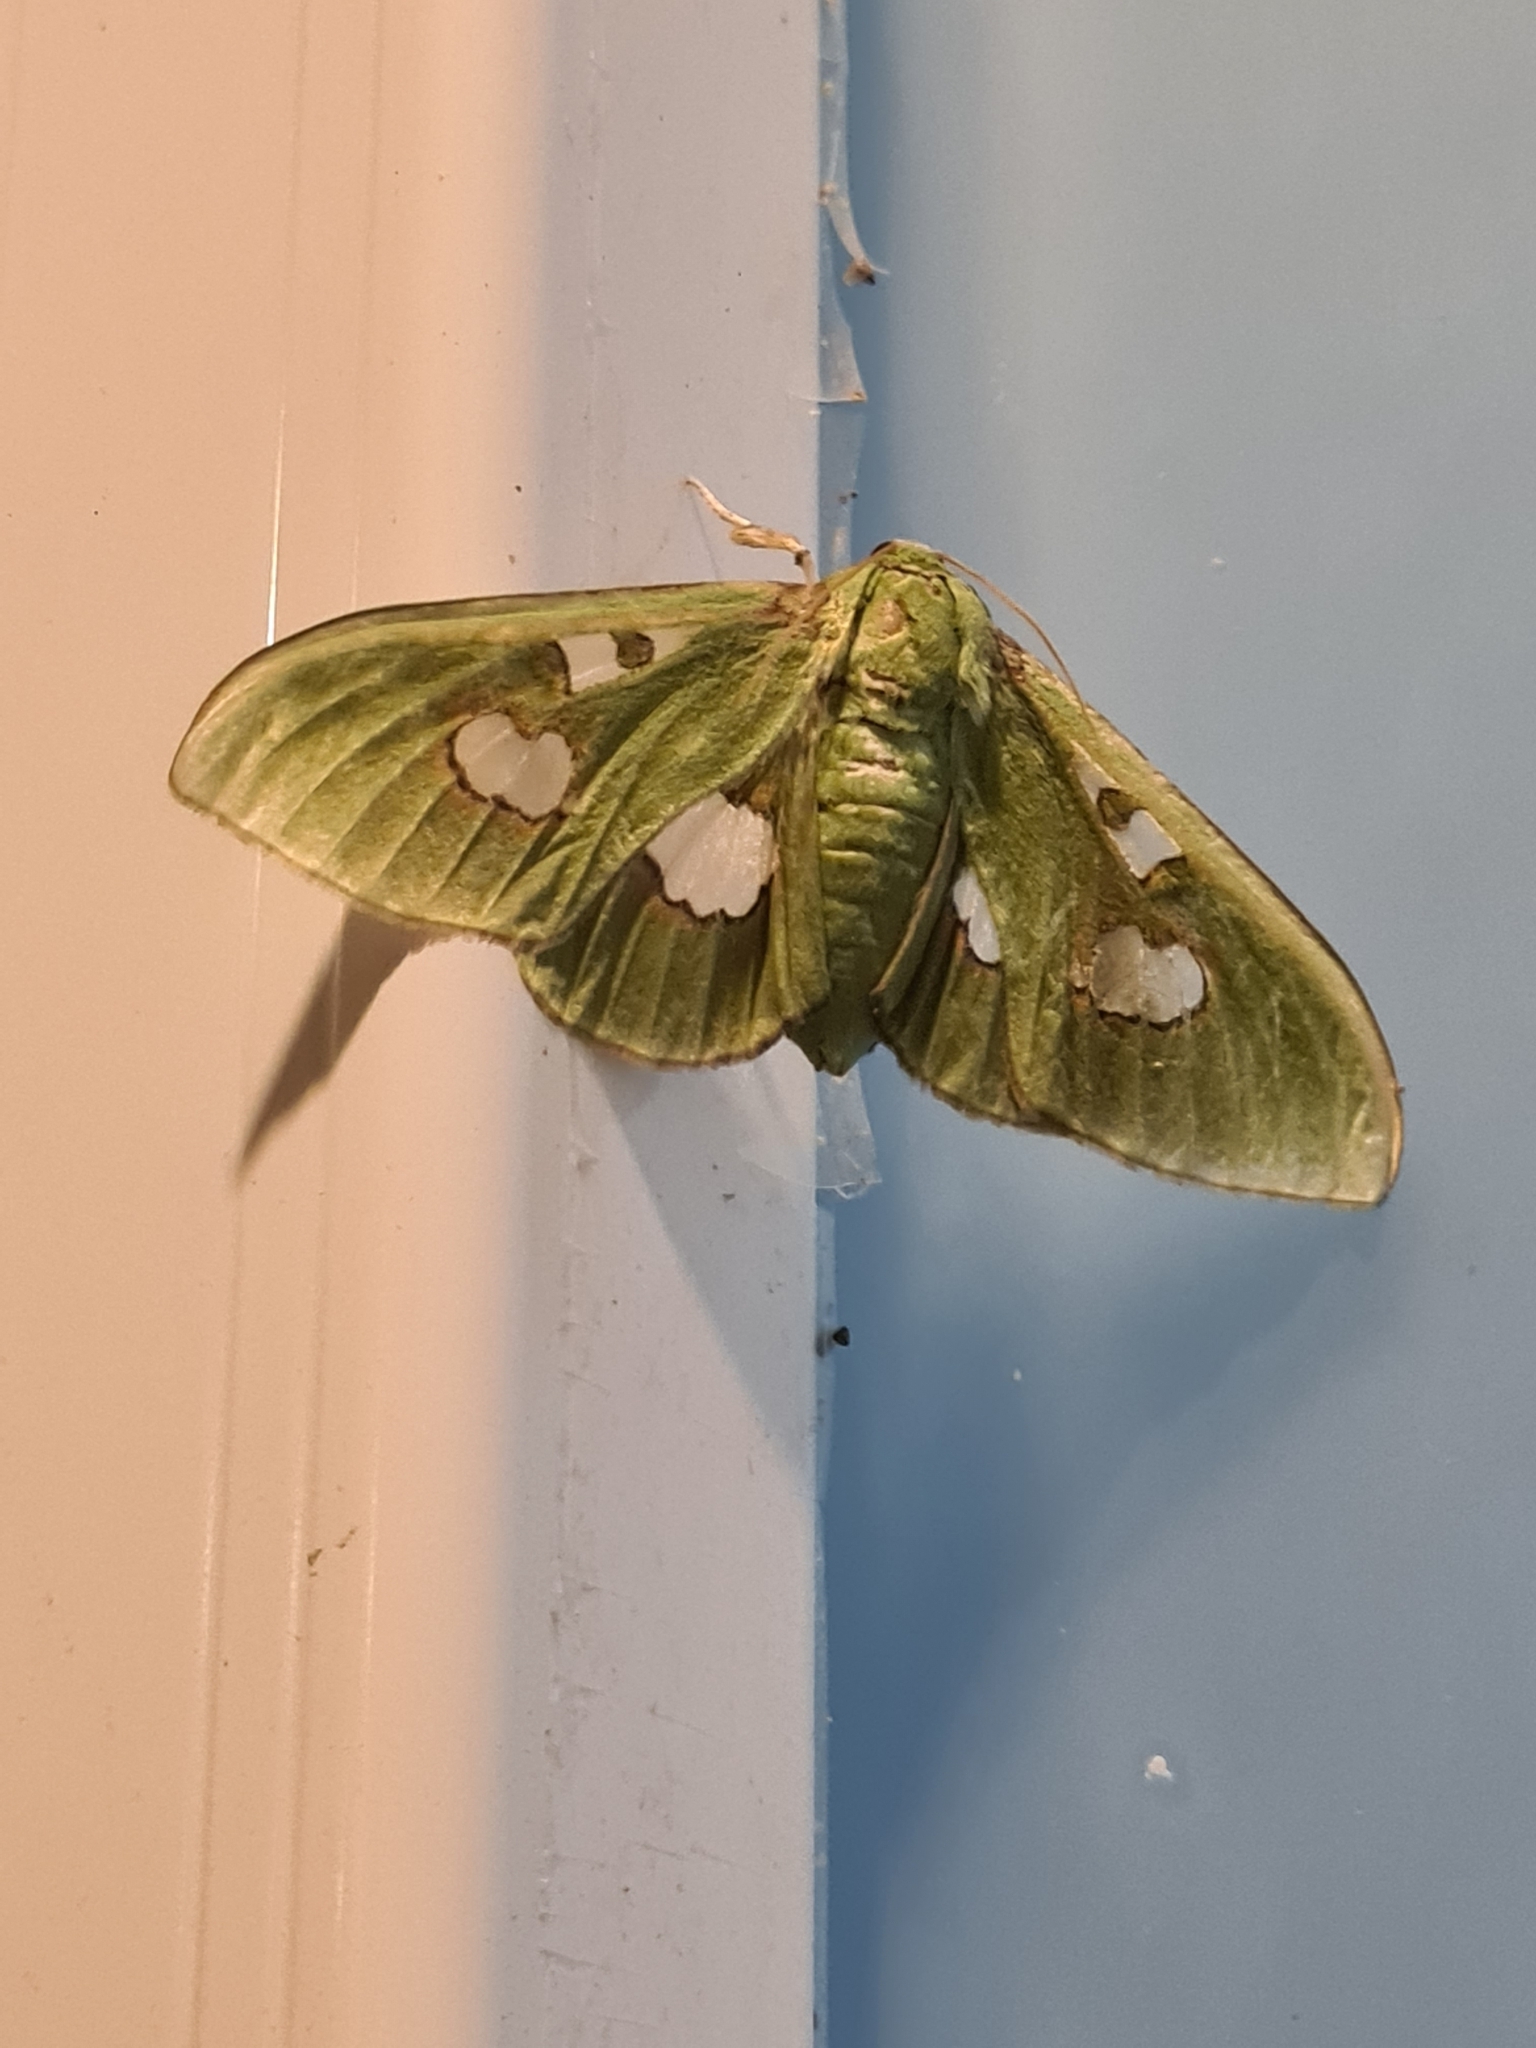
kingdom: Animalia
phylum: Arthropoda
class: Insecta
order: Lepidoptera
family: Crambidae
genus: Siga
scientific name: Siga liris
